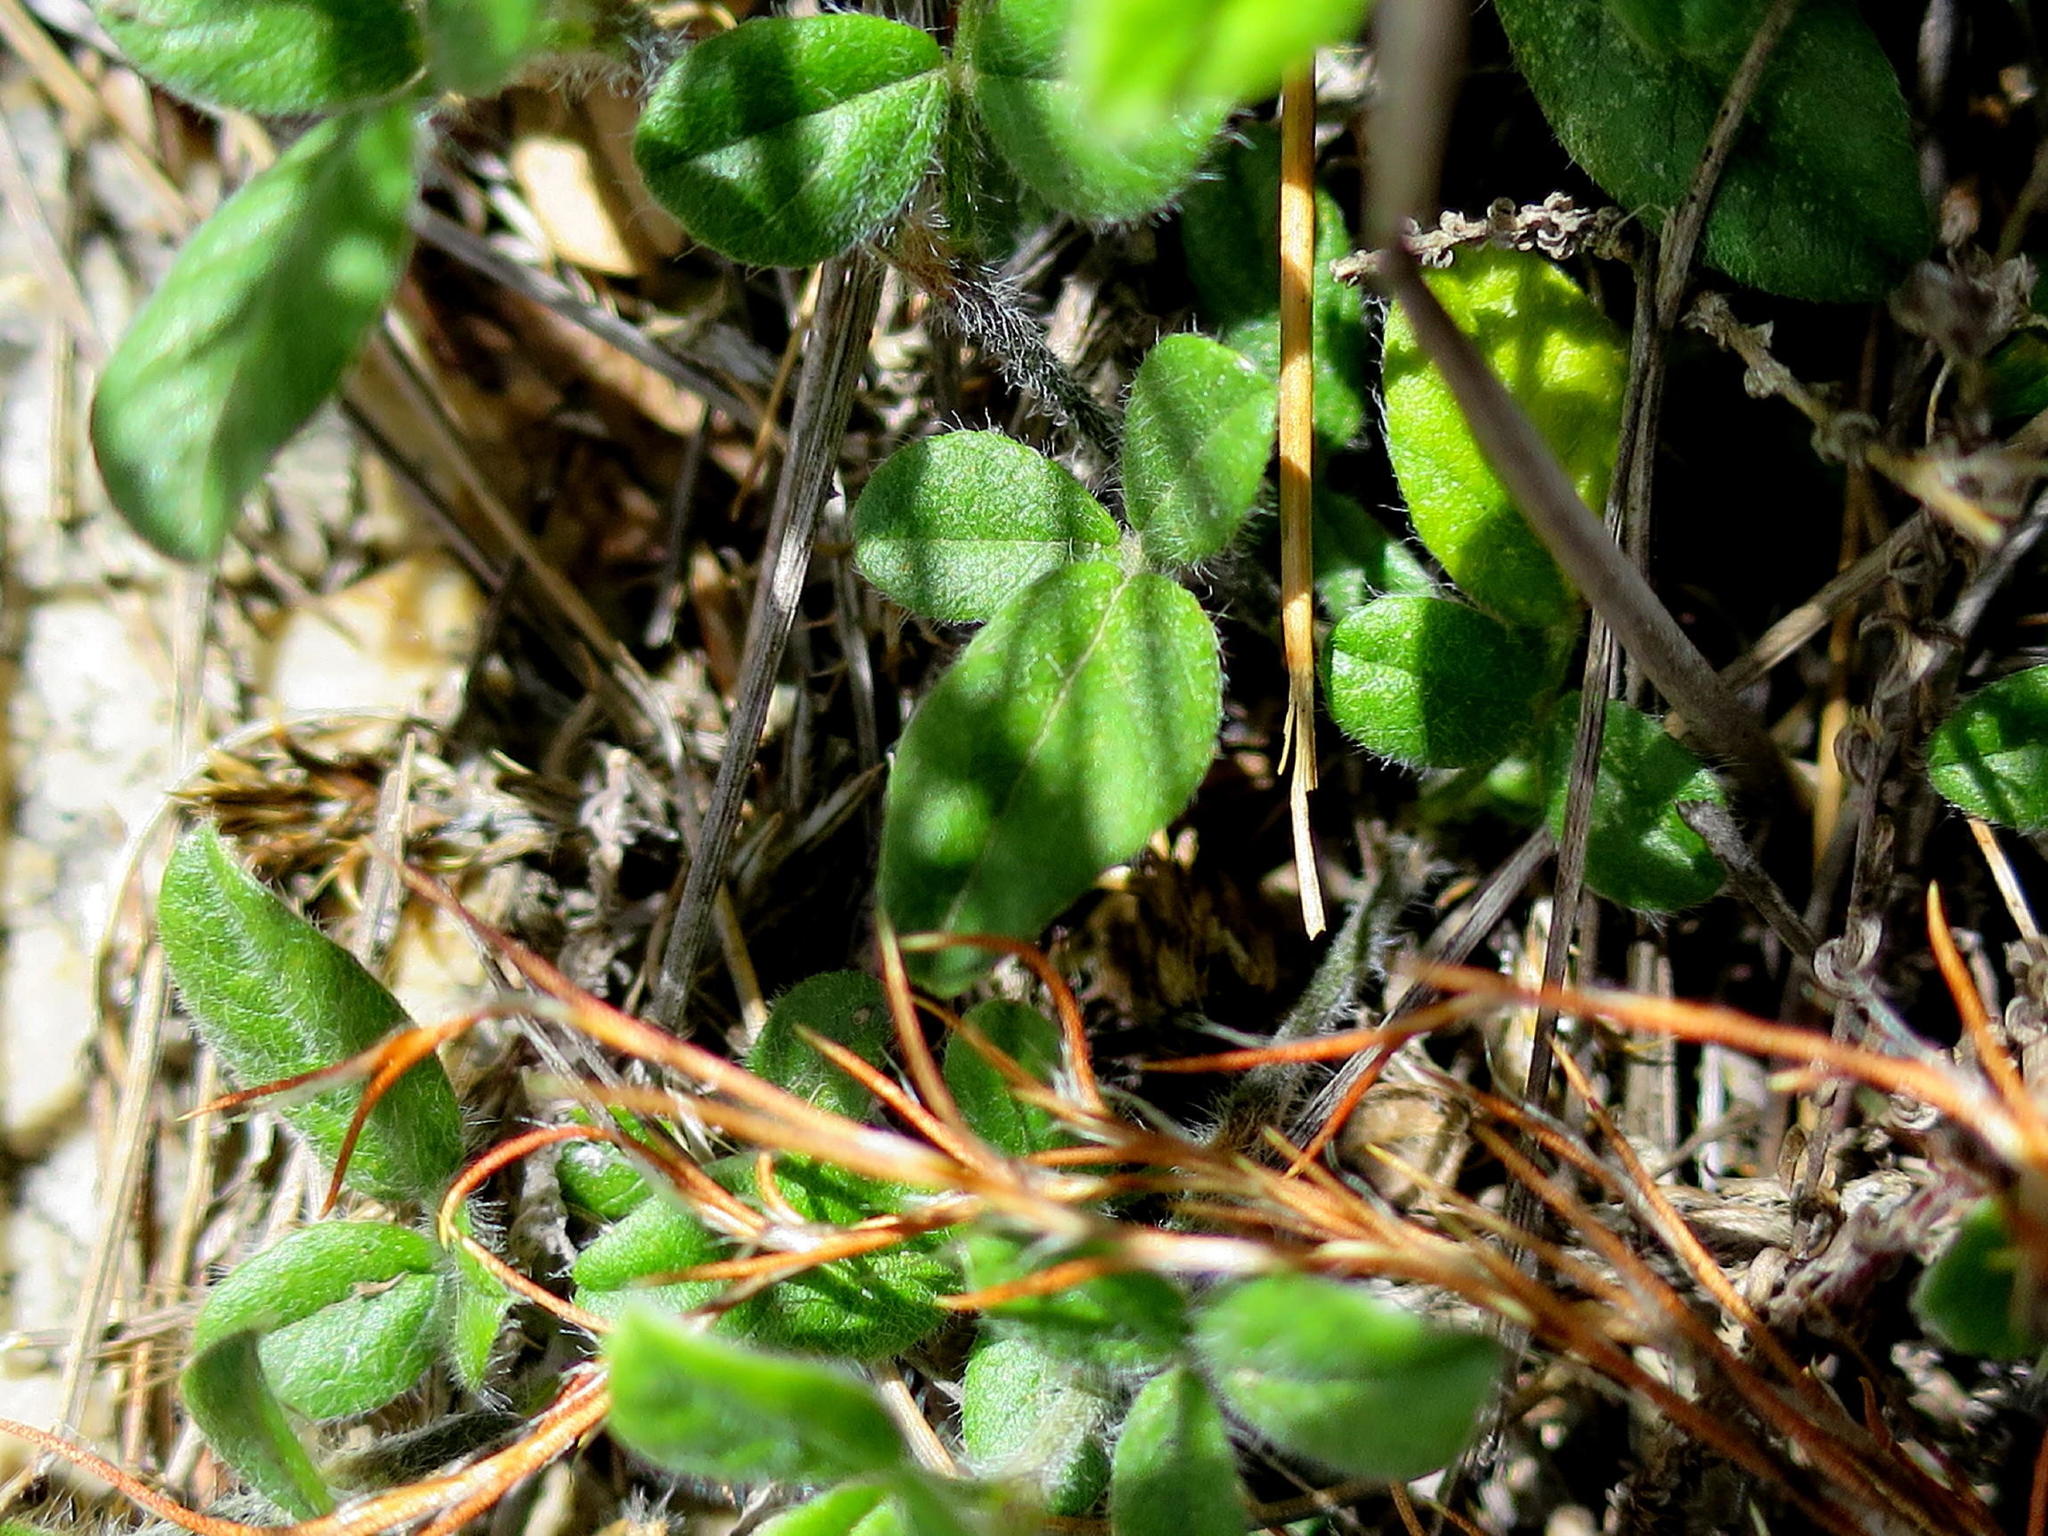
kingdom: Plantae
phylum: Tracheophyta
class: Magnoliopsida
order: Fabales
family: Fabaceae
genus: Psoralea
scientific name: Psoralea swartbergensis
